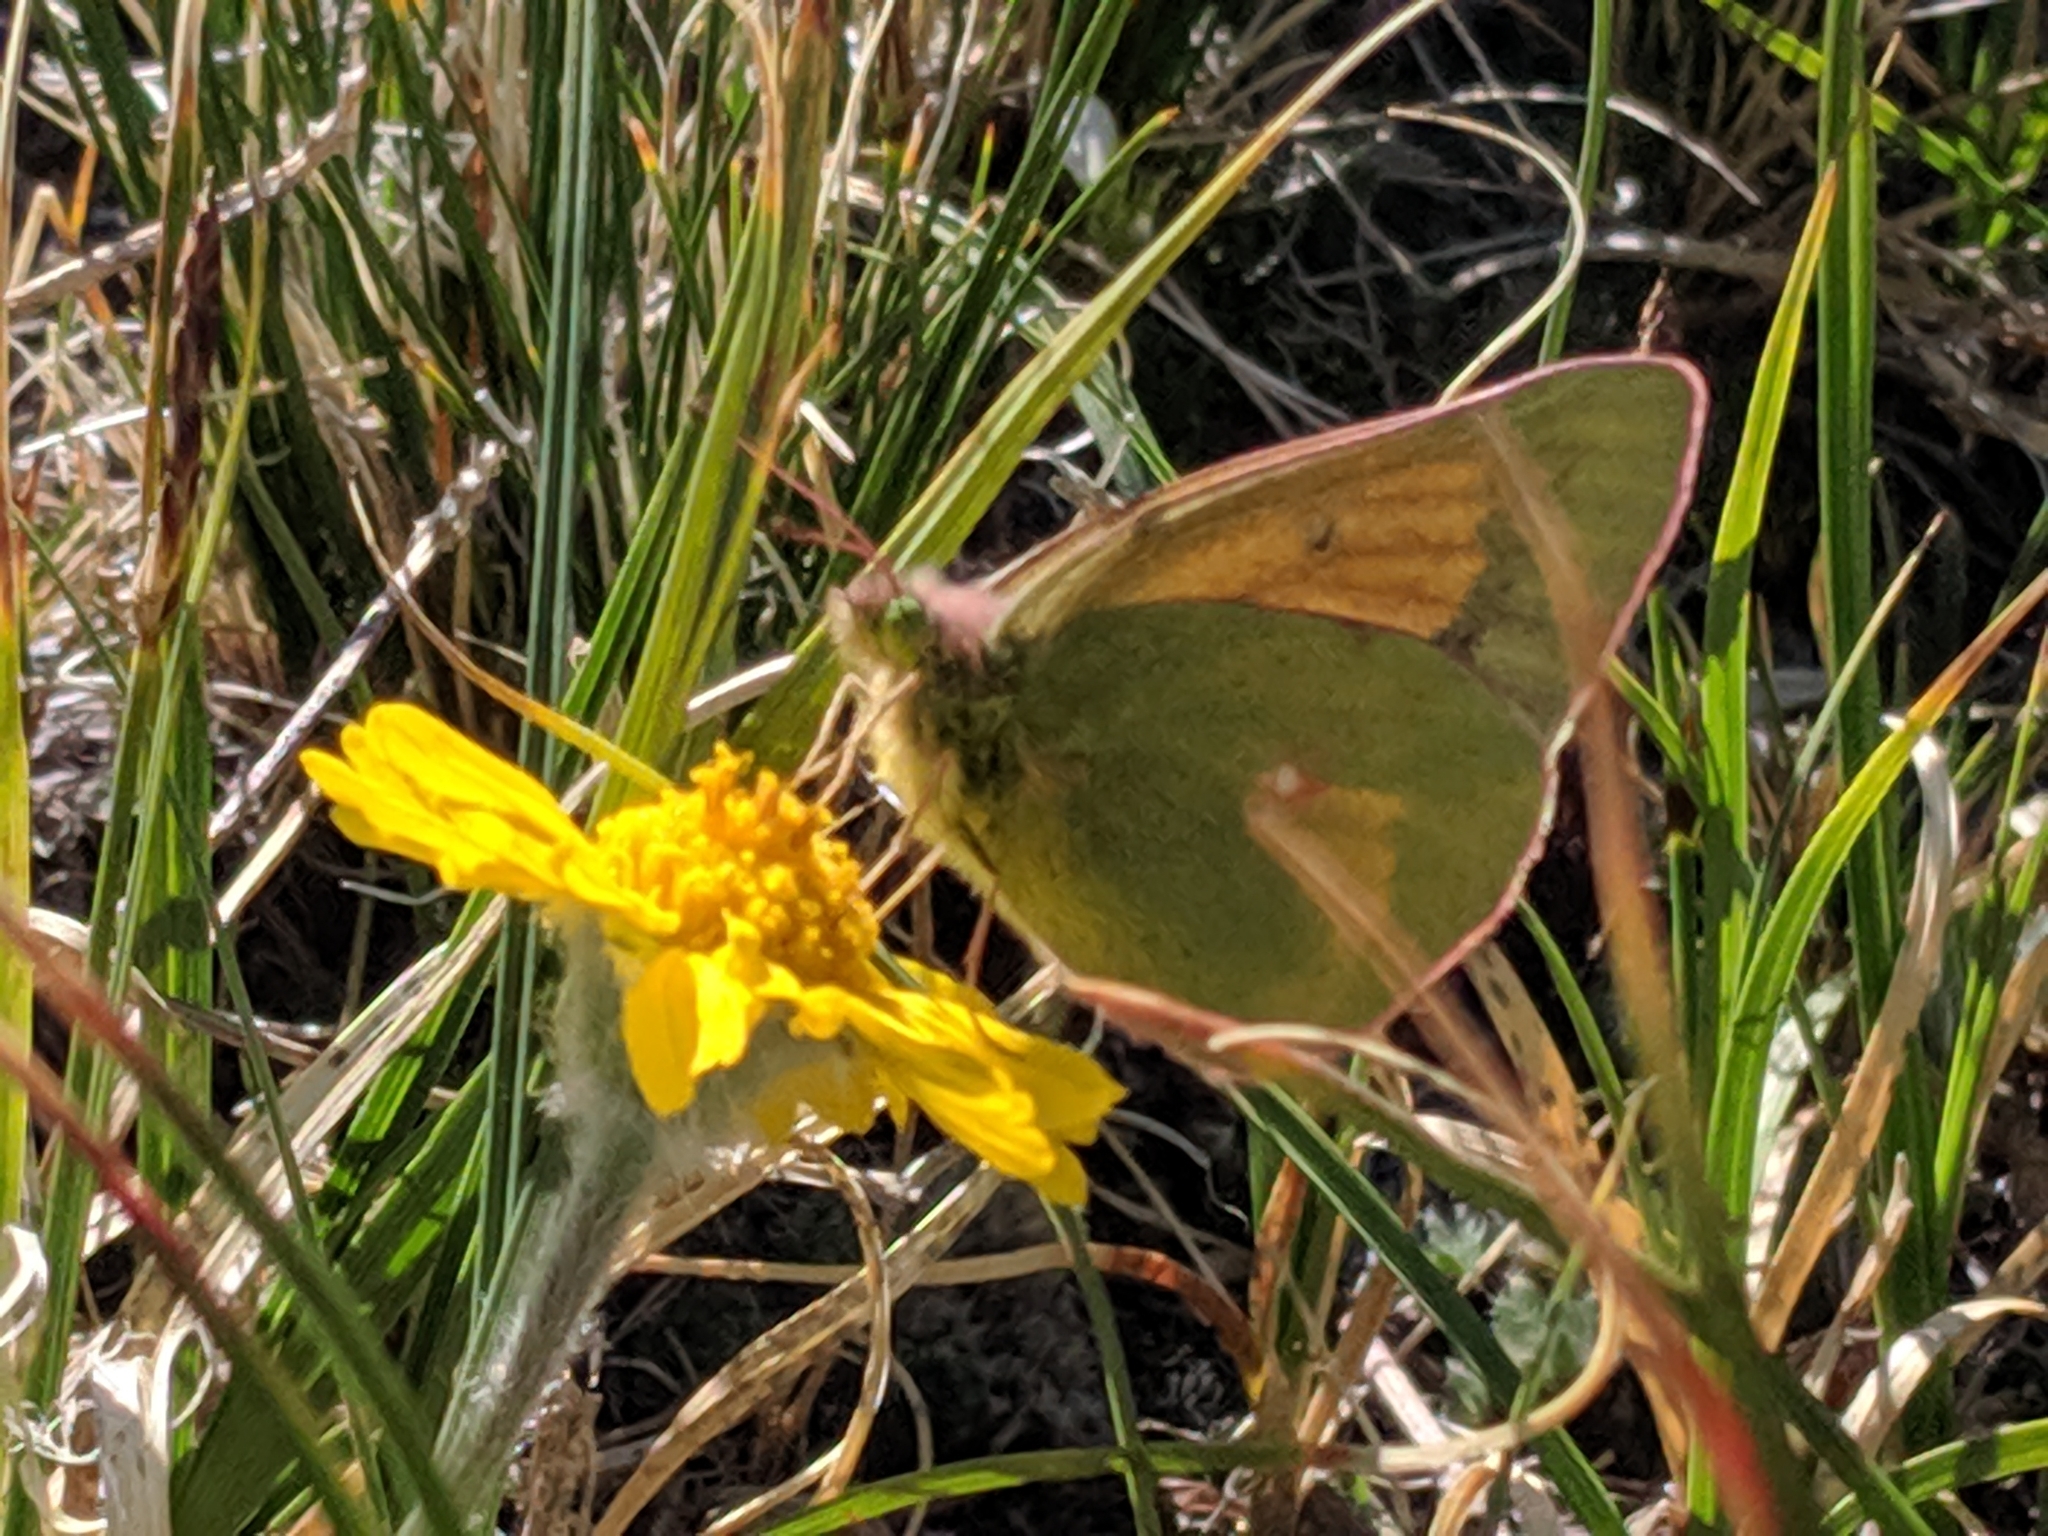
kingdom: Animalia
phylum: Arthropoda
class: Insecta
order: Lepidoptera
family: Pieridae
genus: Colias
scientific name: Colias meadii
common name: Mead's sulphur
